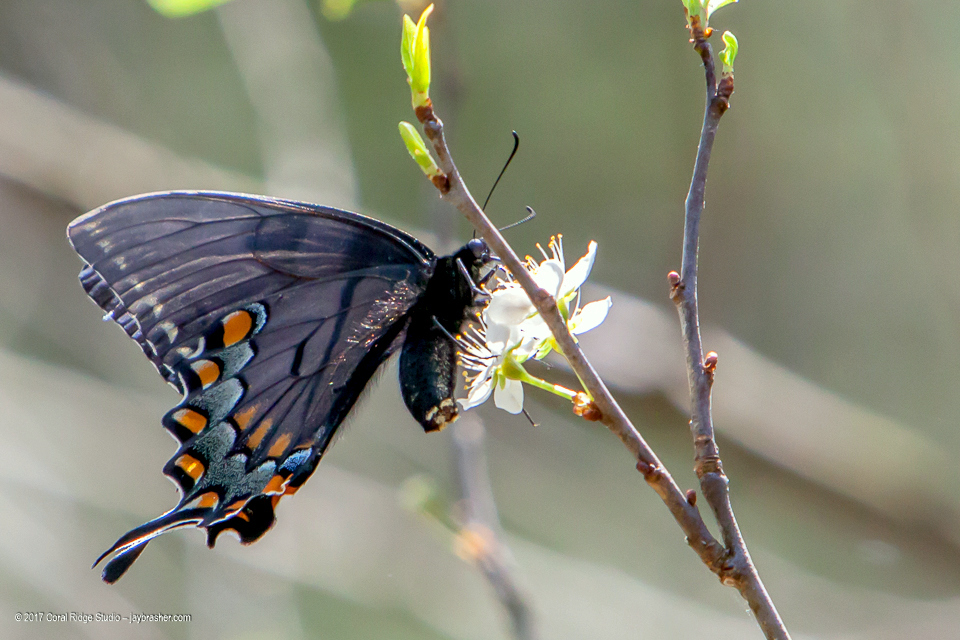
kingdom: Animalia
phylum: Arthropoda
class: Insecta
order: Lepidoptera
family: Papilionidae
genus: Papilio
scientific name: Papilio glaucus
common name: Tiger swallowtail
